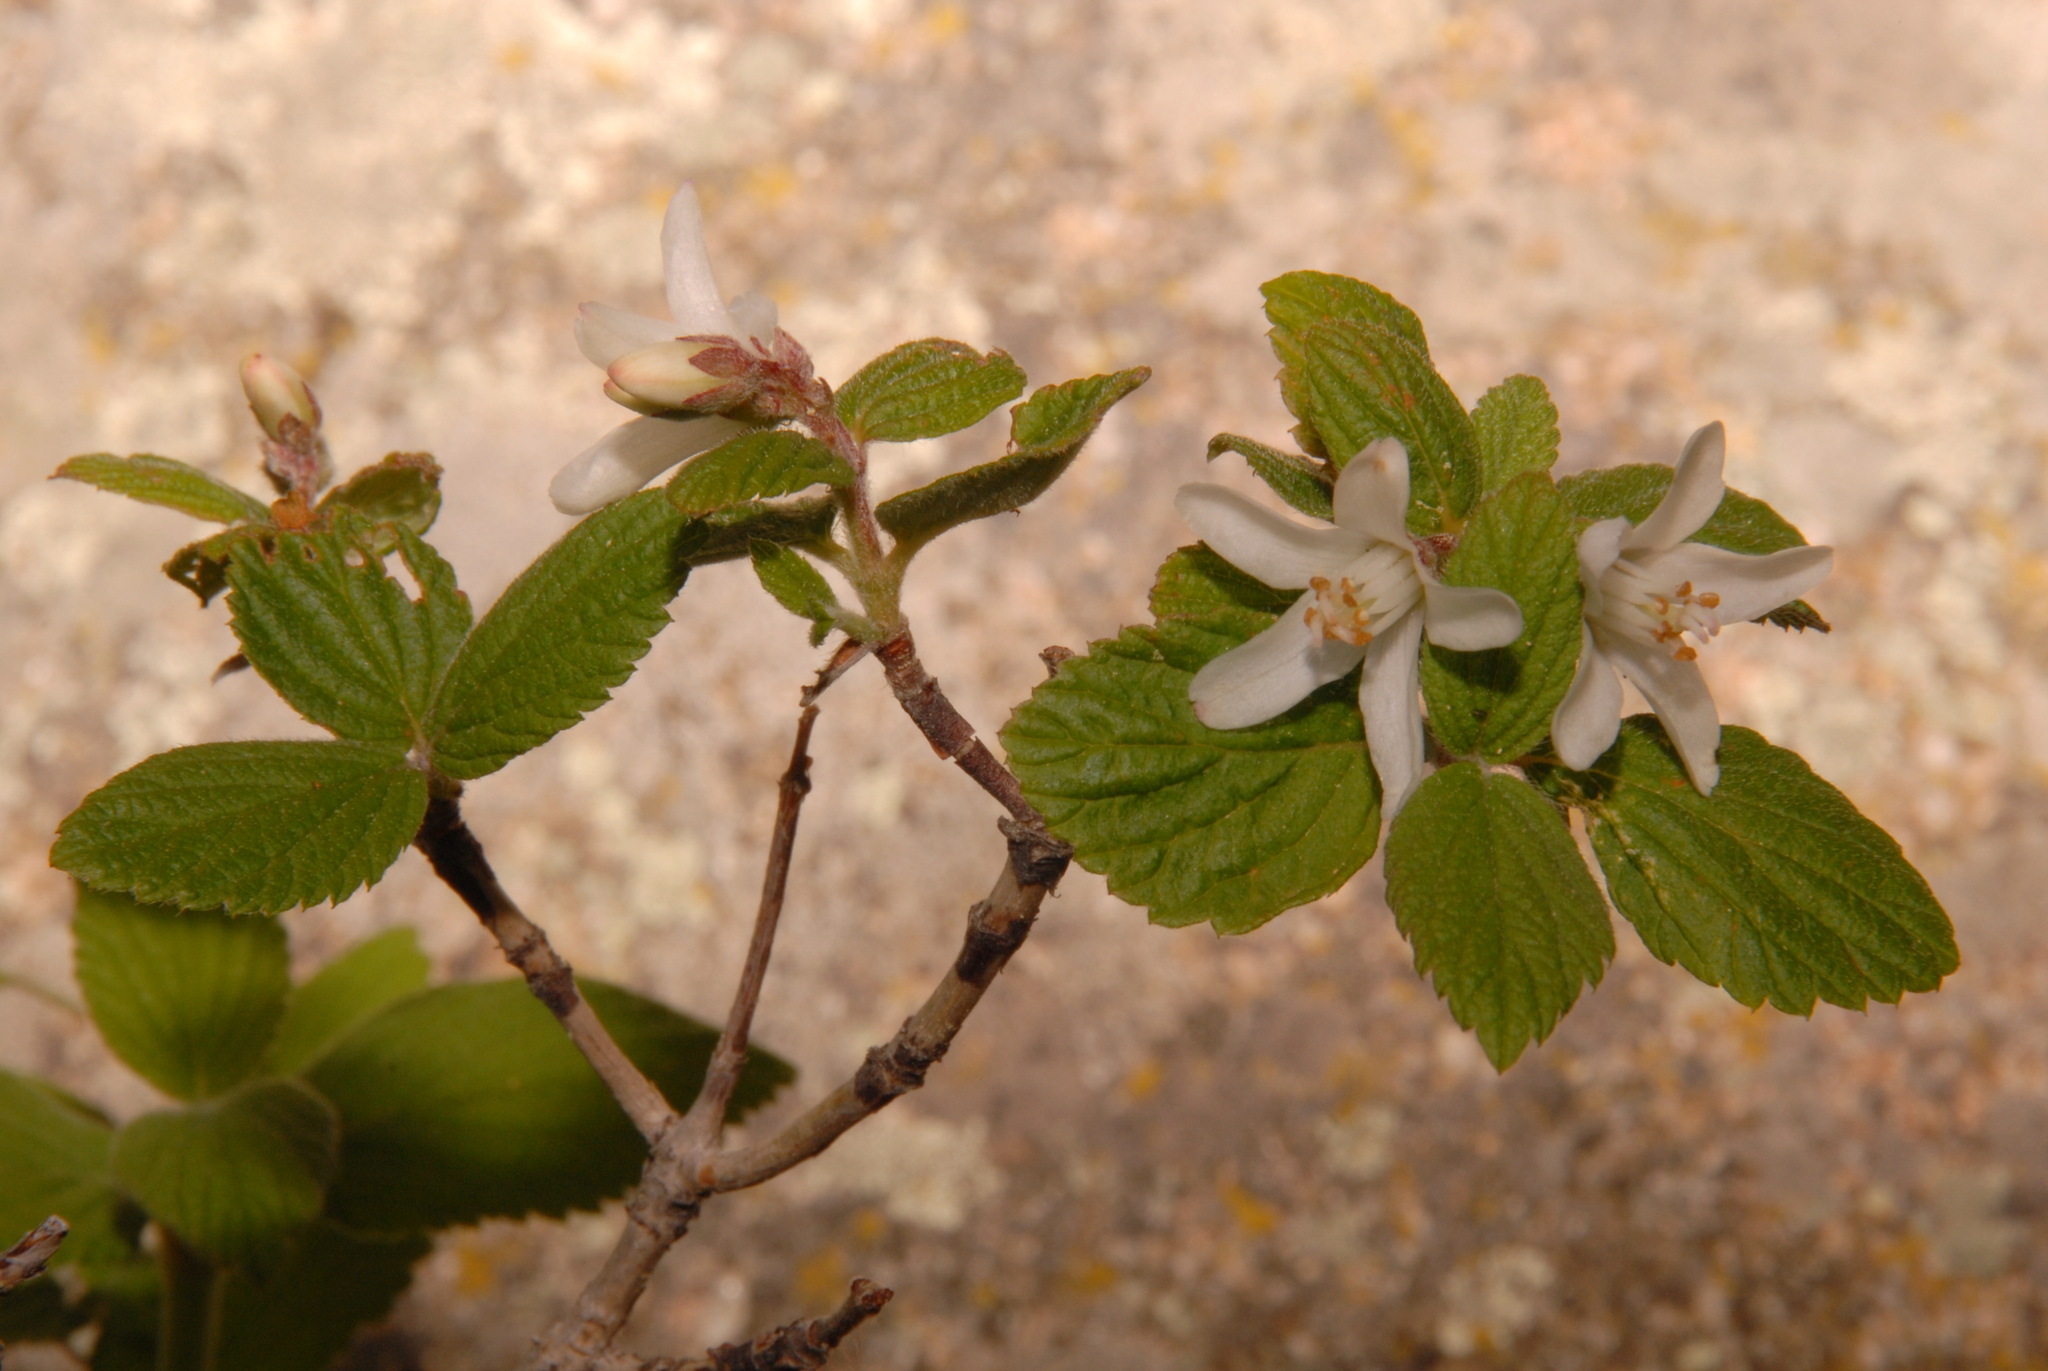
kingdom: Plantae
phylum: Tracheophyta
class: Magnoliopsida
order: Cornales
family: Hydrangeaceae
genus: Jamesia
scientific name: Jamesia americana
